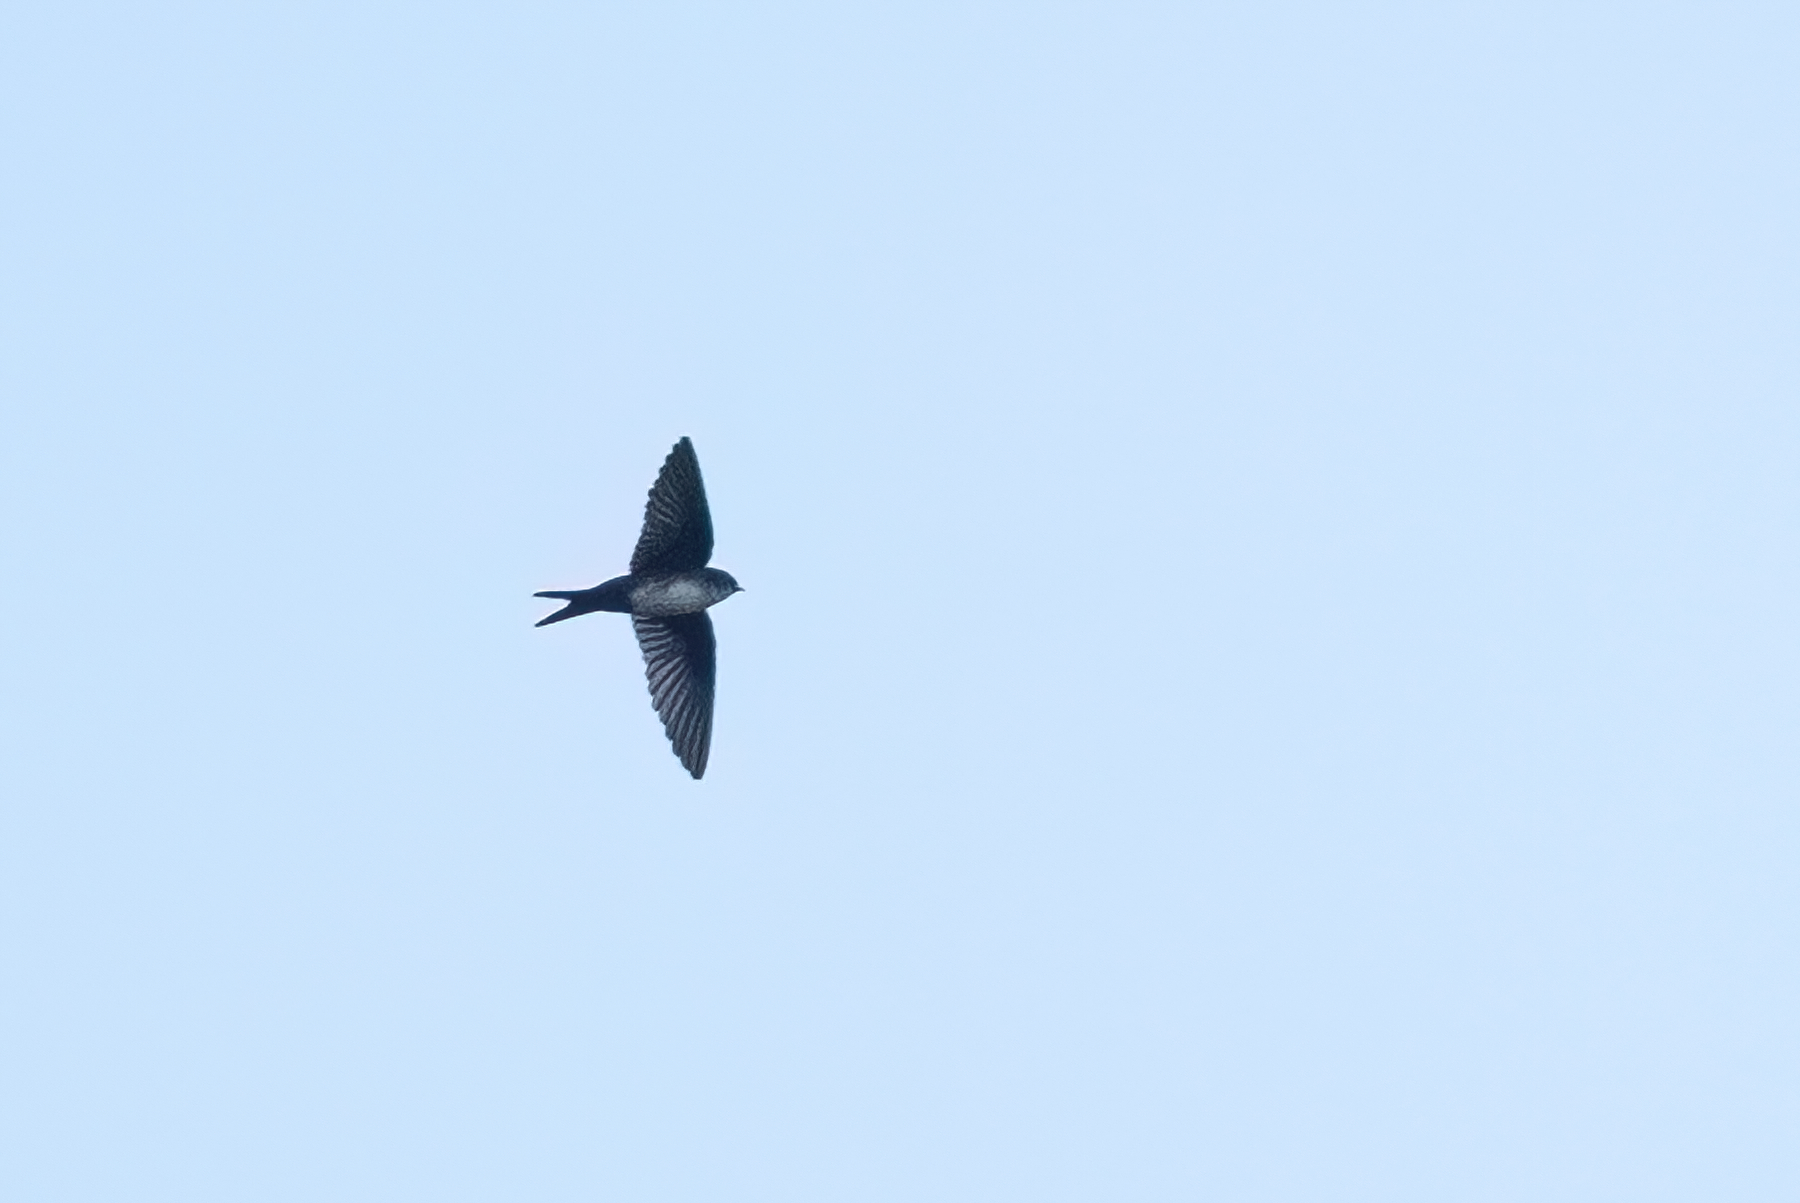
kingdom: Animalia
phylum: Chordata
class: Aves
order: Passeriformes
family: Hirundinidae
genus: Notiochelidon
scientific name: Notiochelidon pileata
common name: Black-capped swallow
